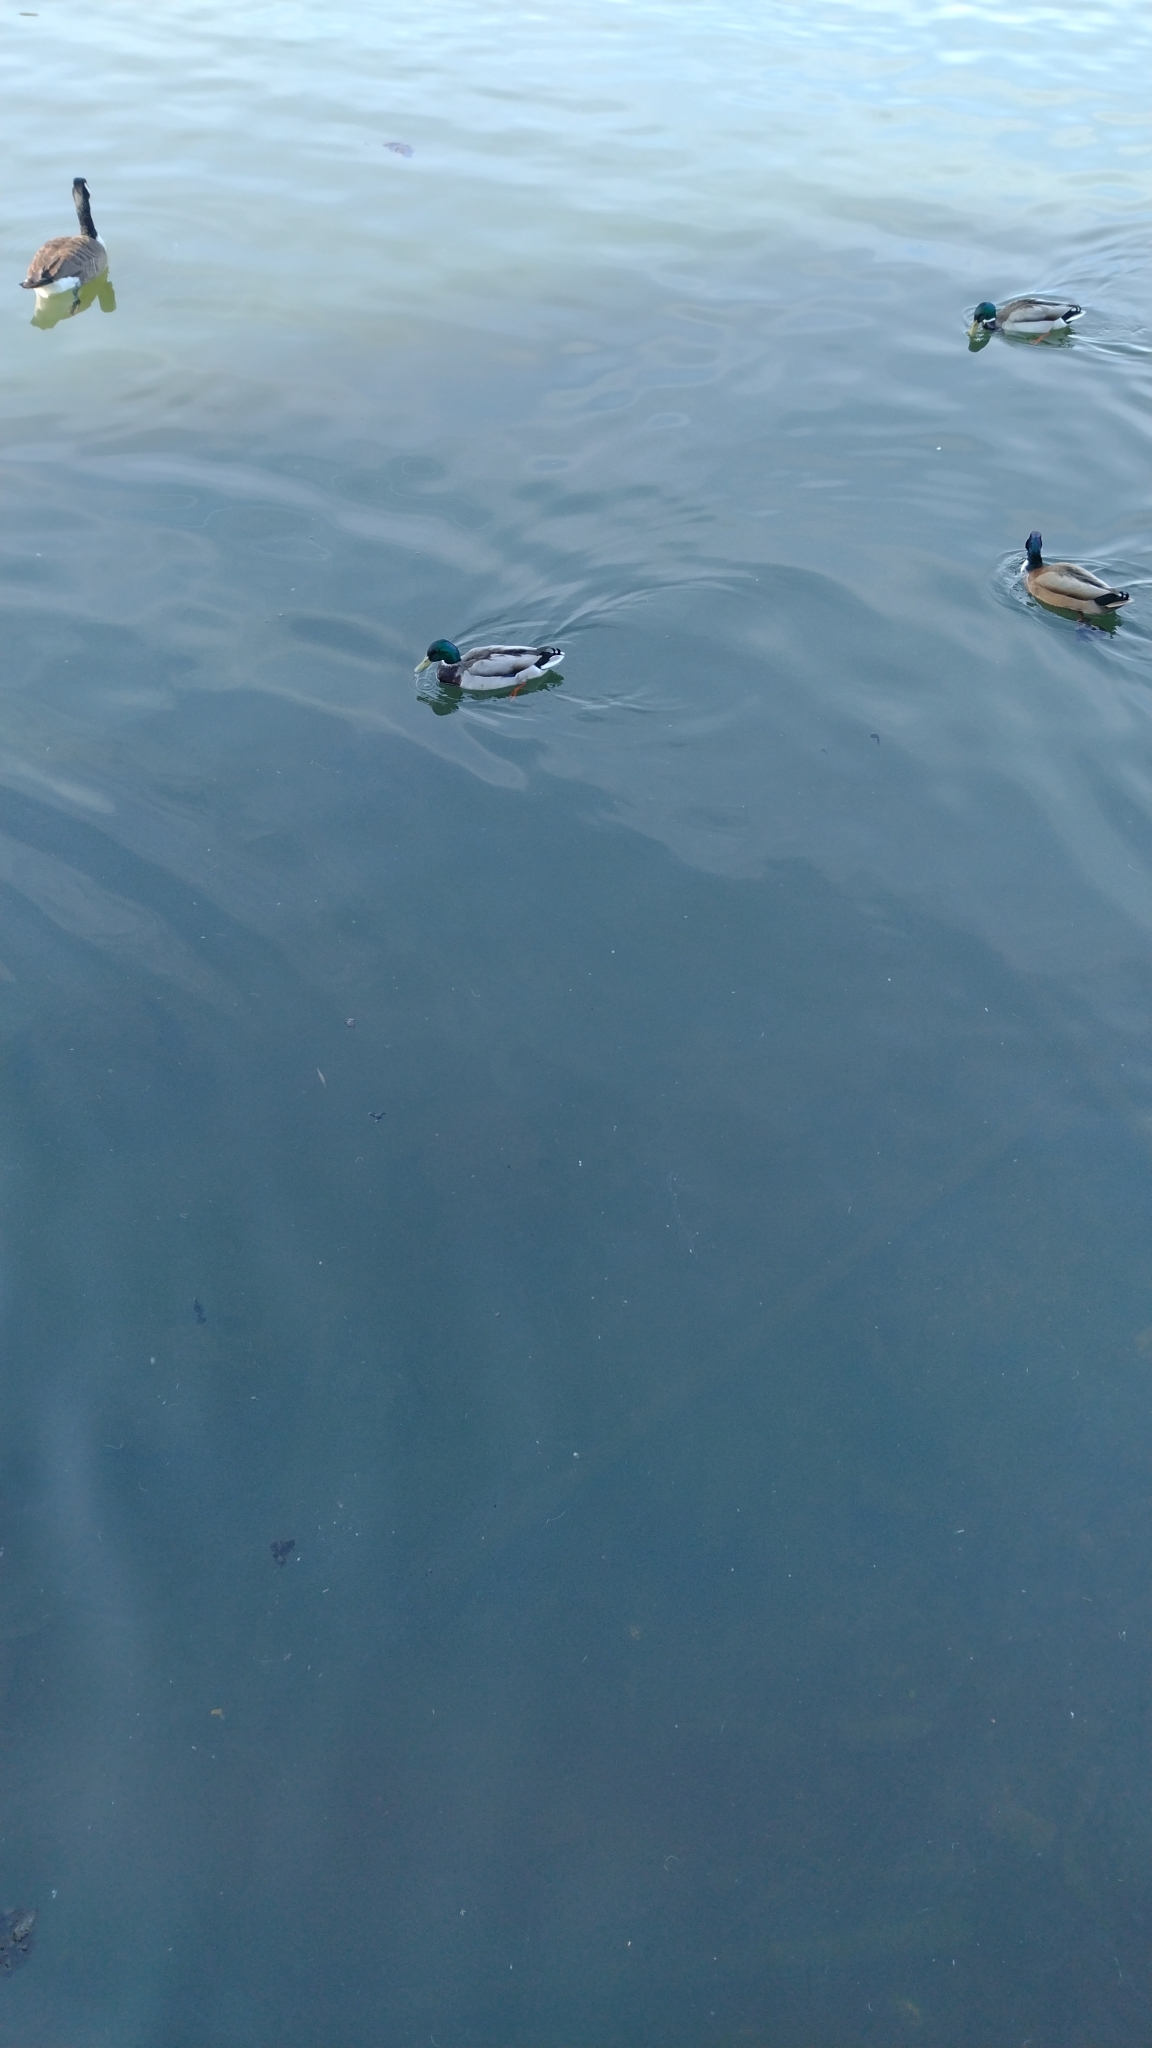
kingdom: Animalia
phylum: Chordata
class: Aves
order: Anseriformes
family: Anatidae
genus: Anas
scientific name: Anas platyrhynchos
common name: Mallard
